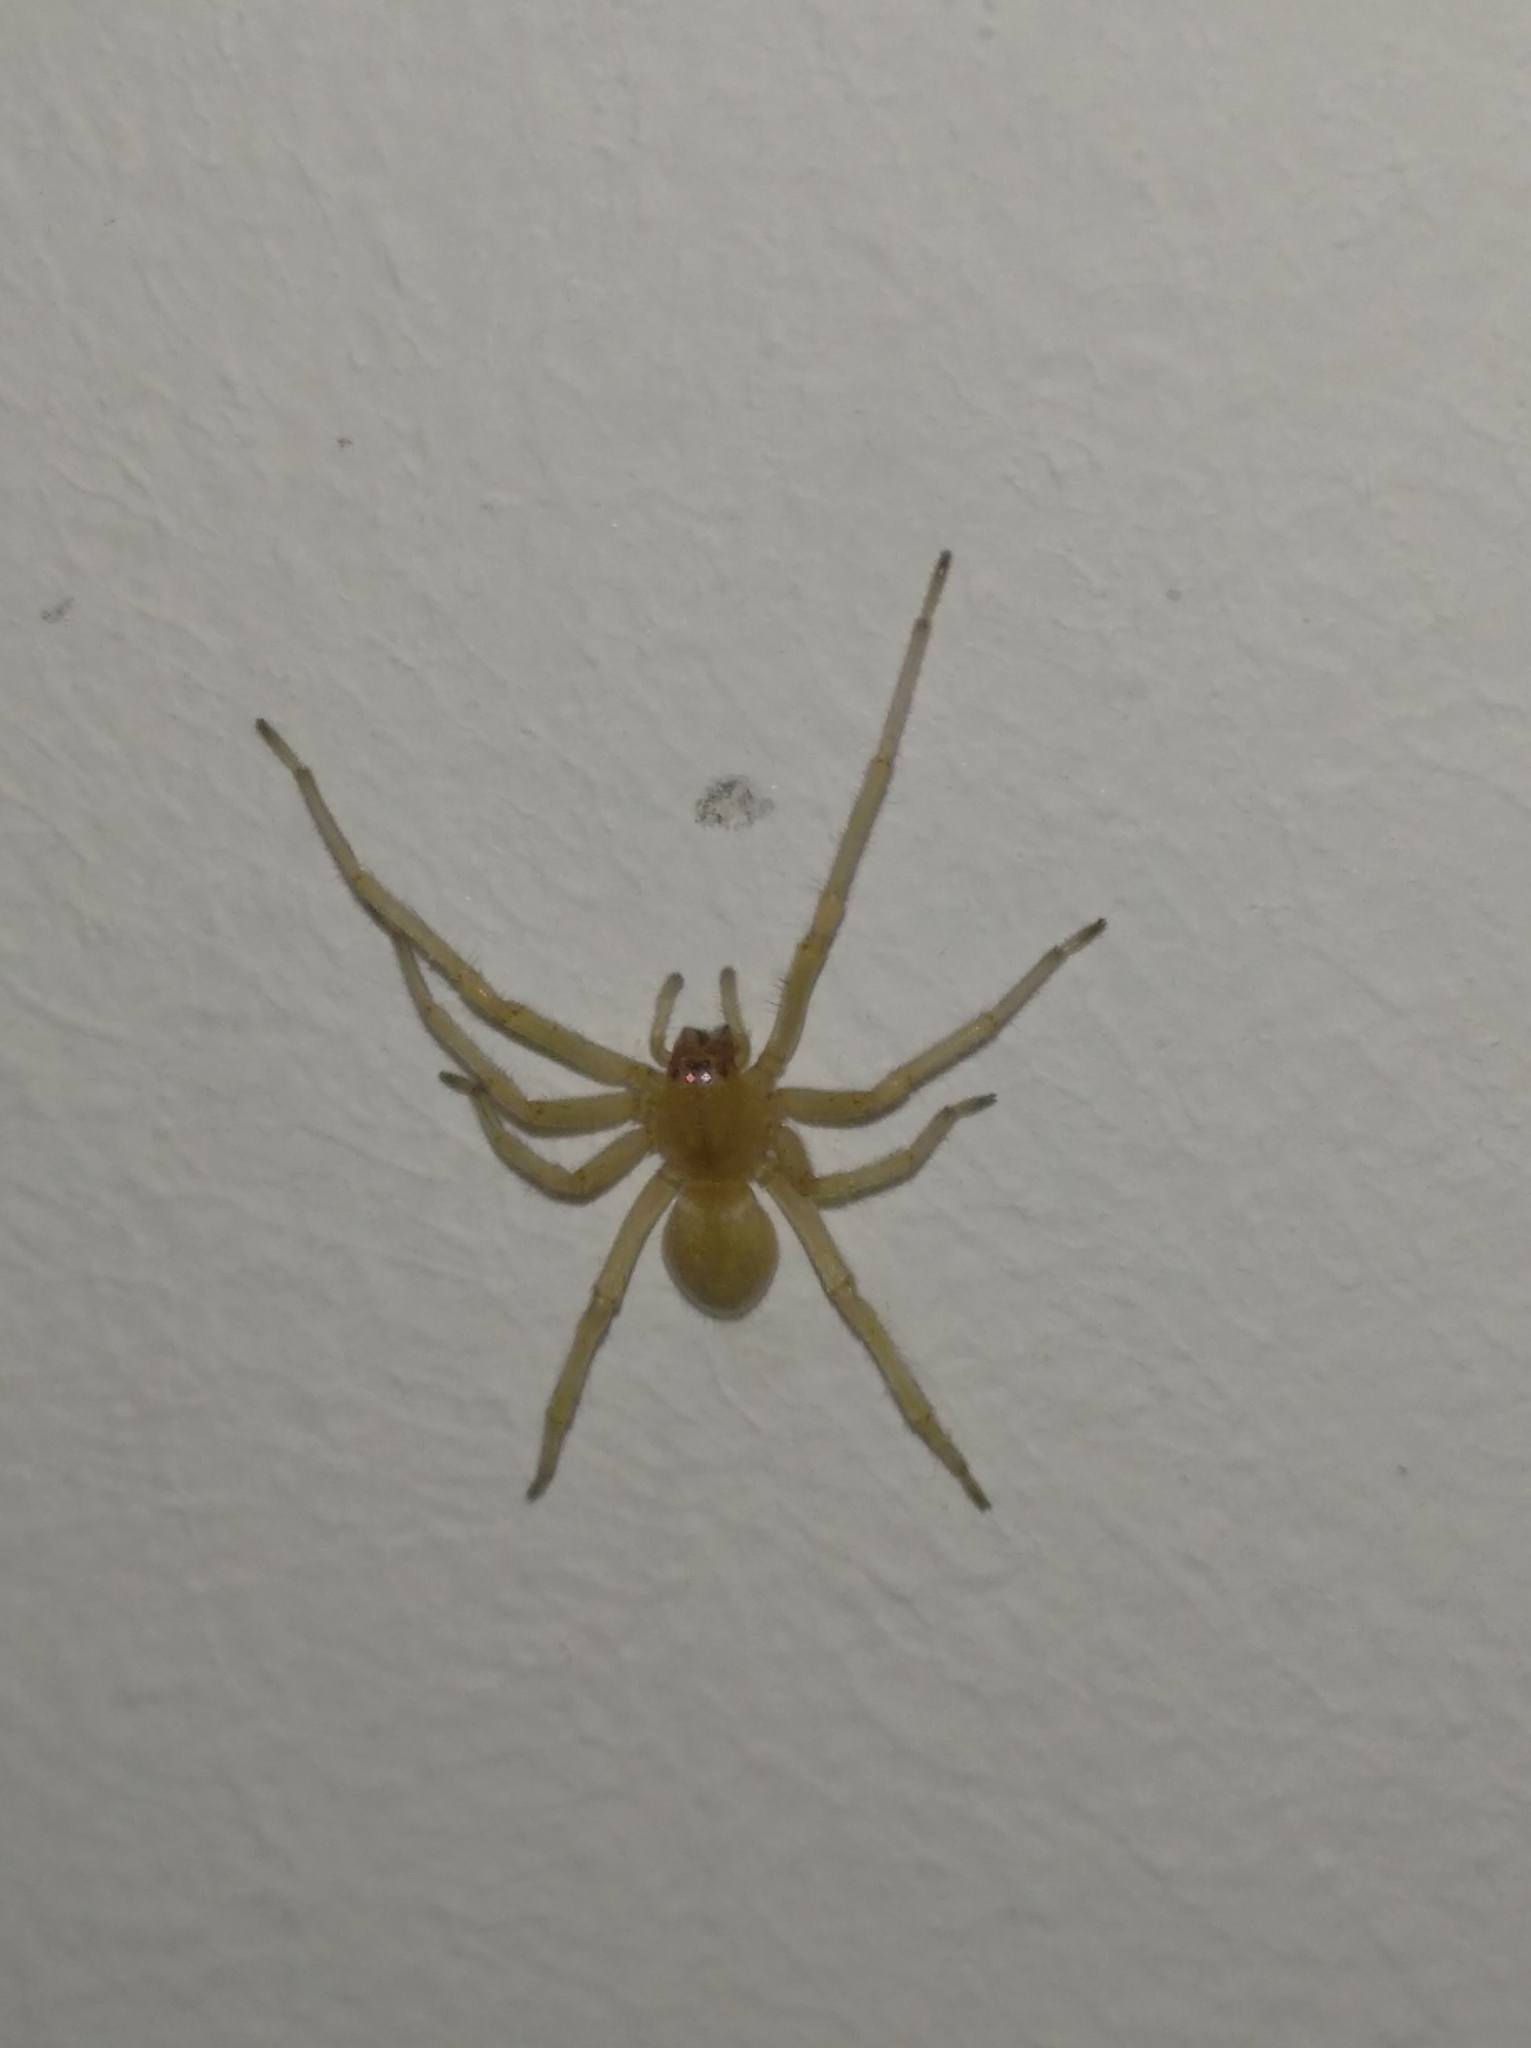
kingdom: Animalia
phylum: Arthropoda
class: Arachnida
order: Araneae
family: Cheiracanthiidae
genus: Cheiracanthium
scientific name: Cheiracanthium mildei
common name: Northern yellow sac spider
